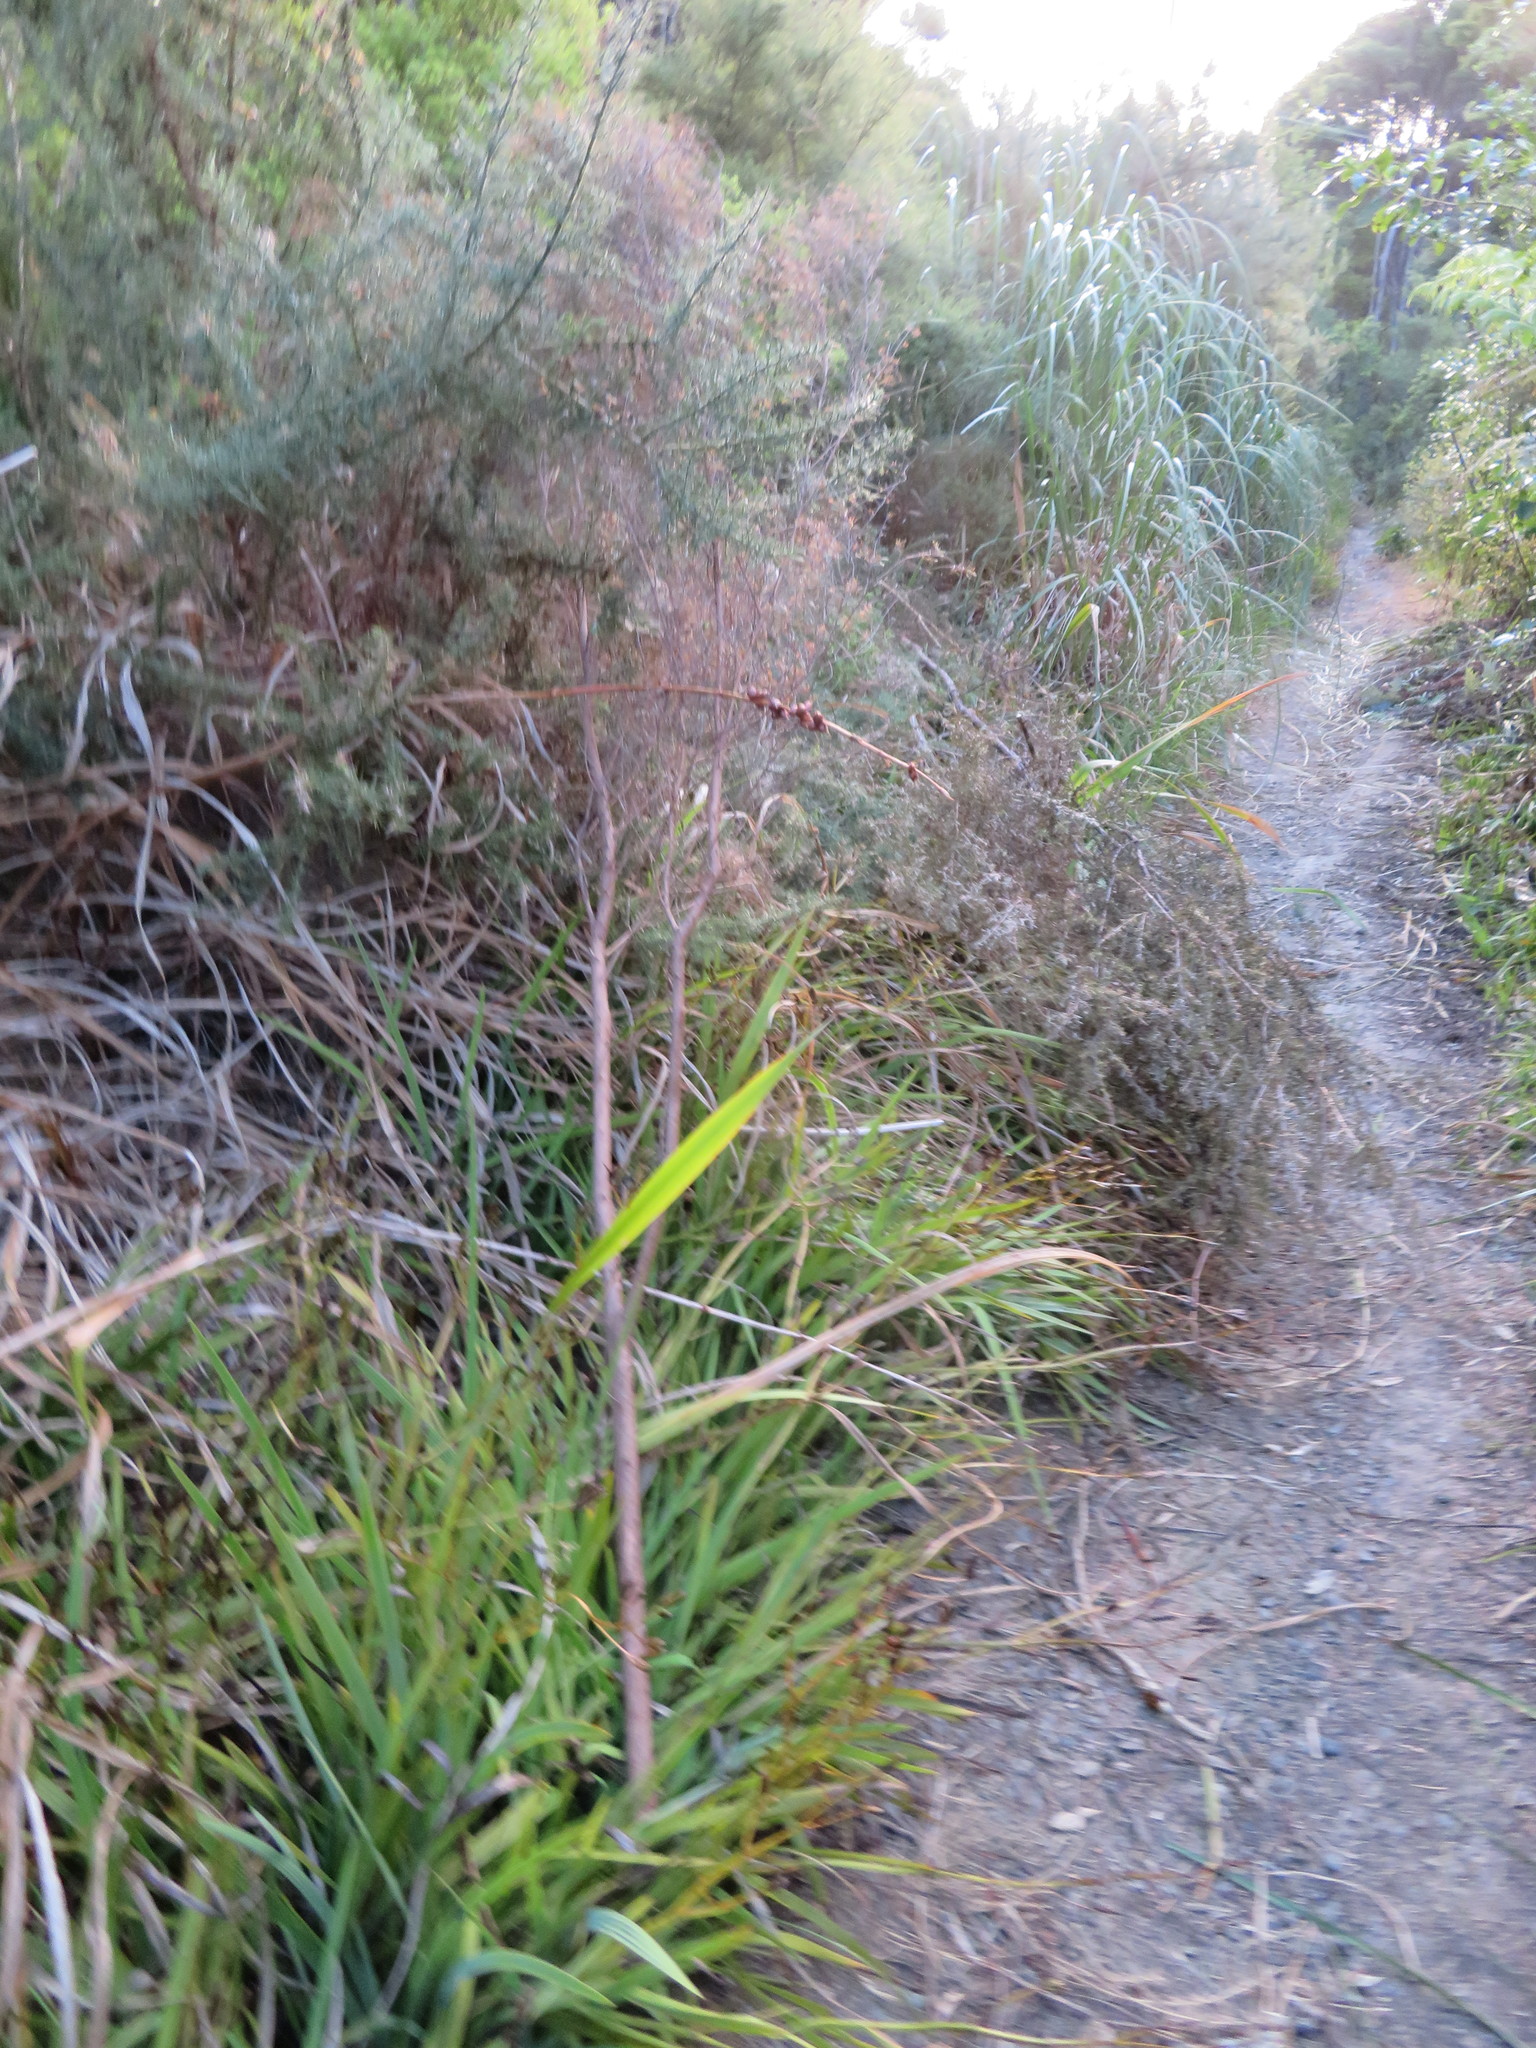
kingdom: Plantae
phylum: Tracheophyta
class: Magnoliopsida
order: Fabales
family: Fabaceae
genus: Ulex
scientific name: Ulex europaeus
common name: Common gorse
